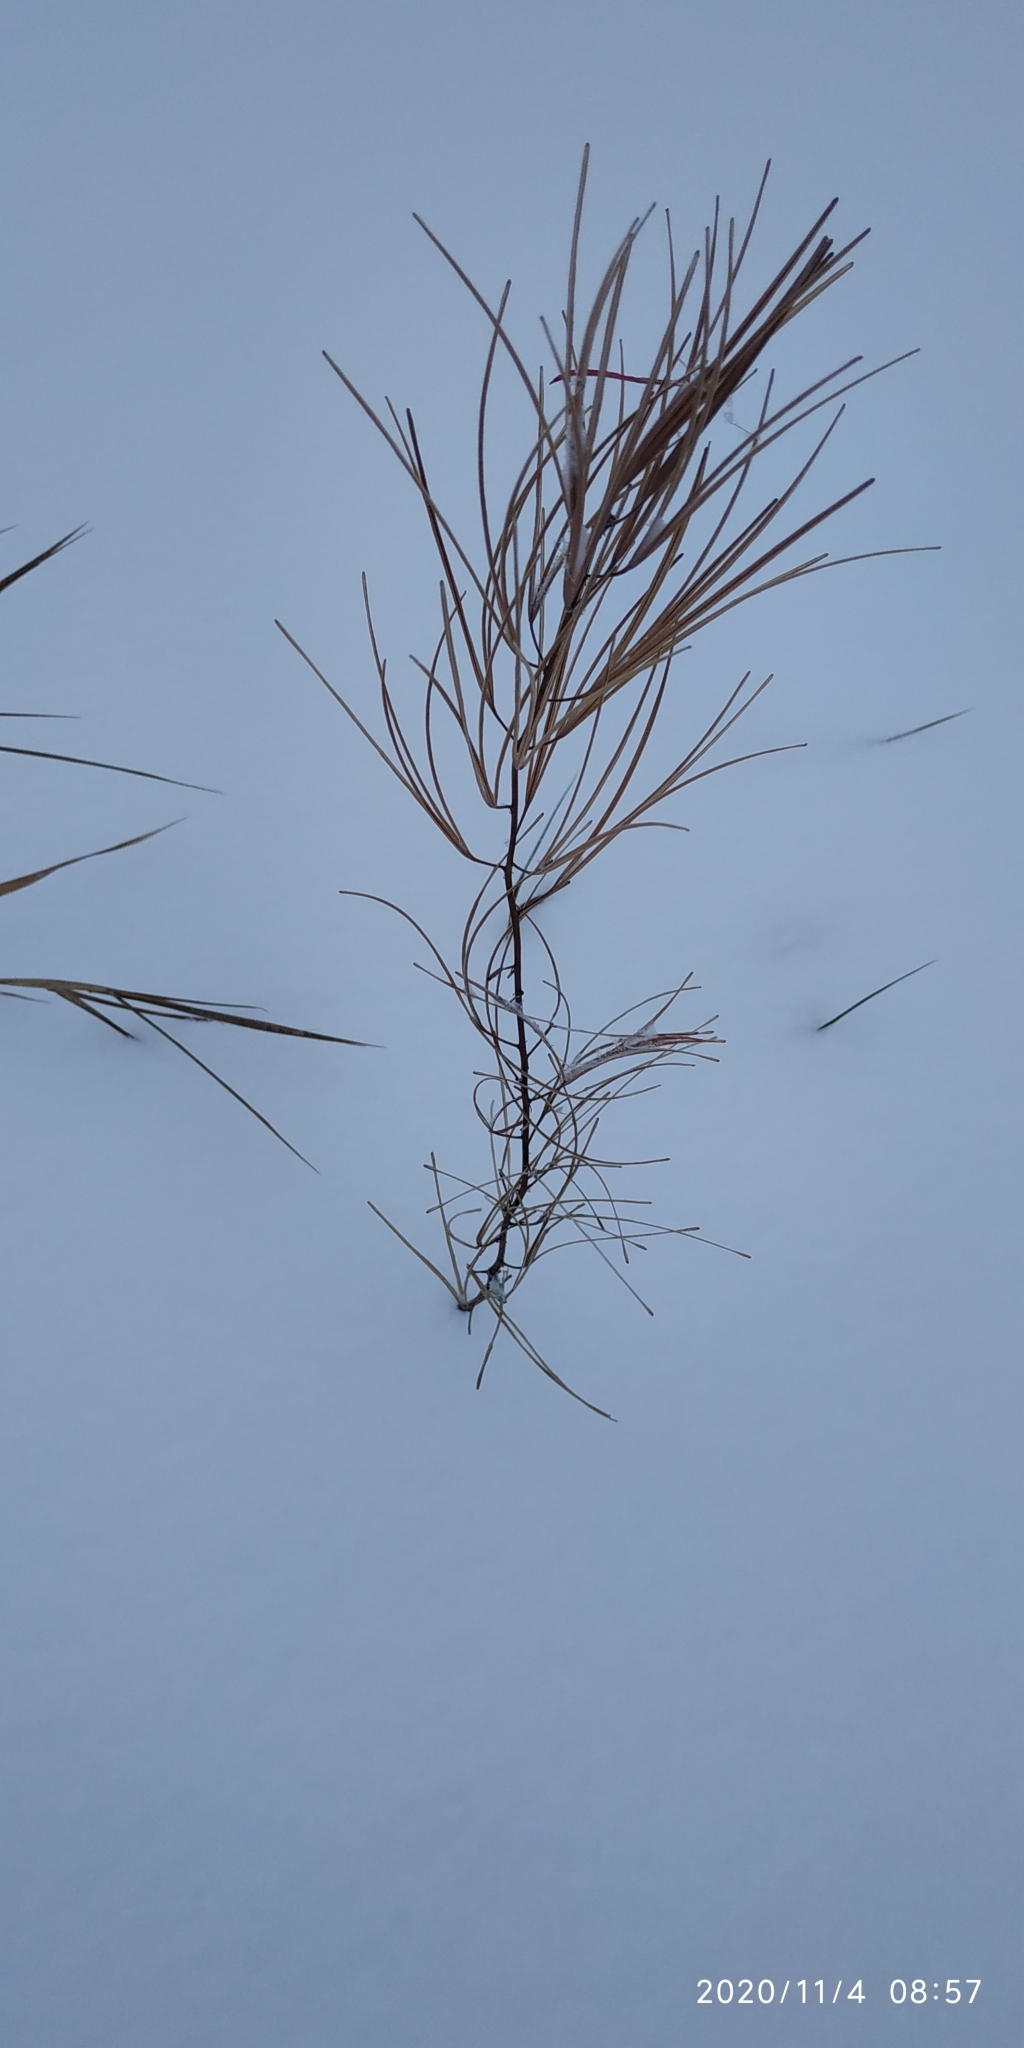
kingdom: Plantae
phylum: Tracheophyta
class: Magnoliopsida
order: Myrtales
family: Onagraceae
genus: Chamaenerion
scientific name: Chamaenerion angustifolium
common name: Fireweed
